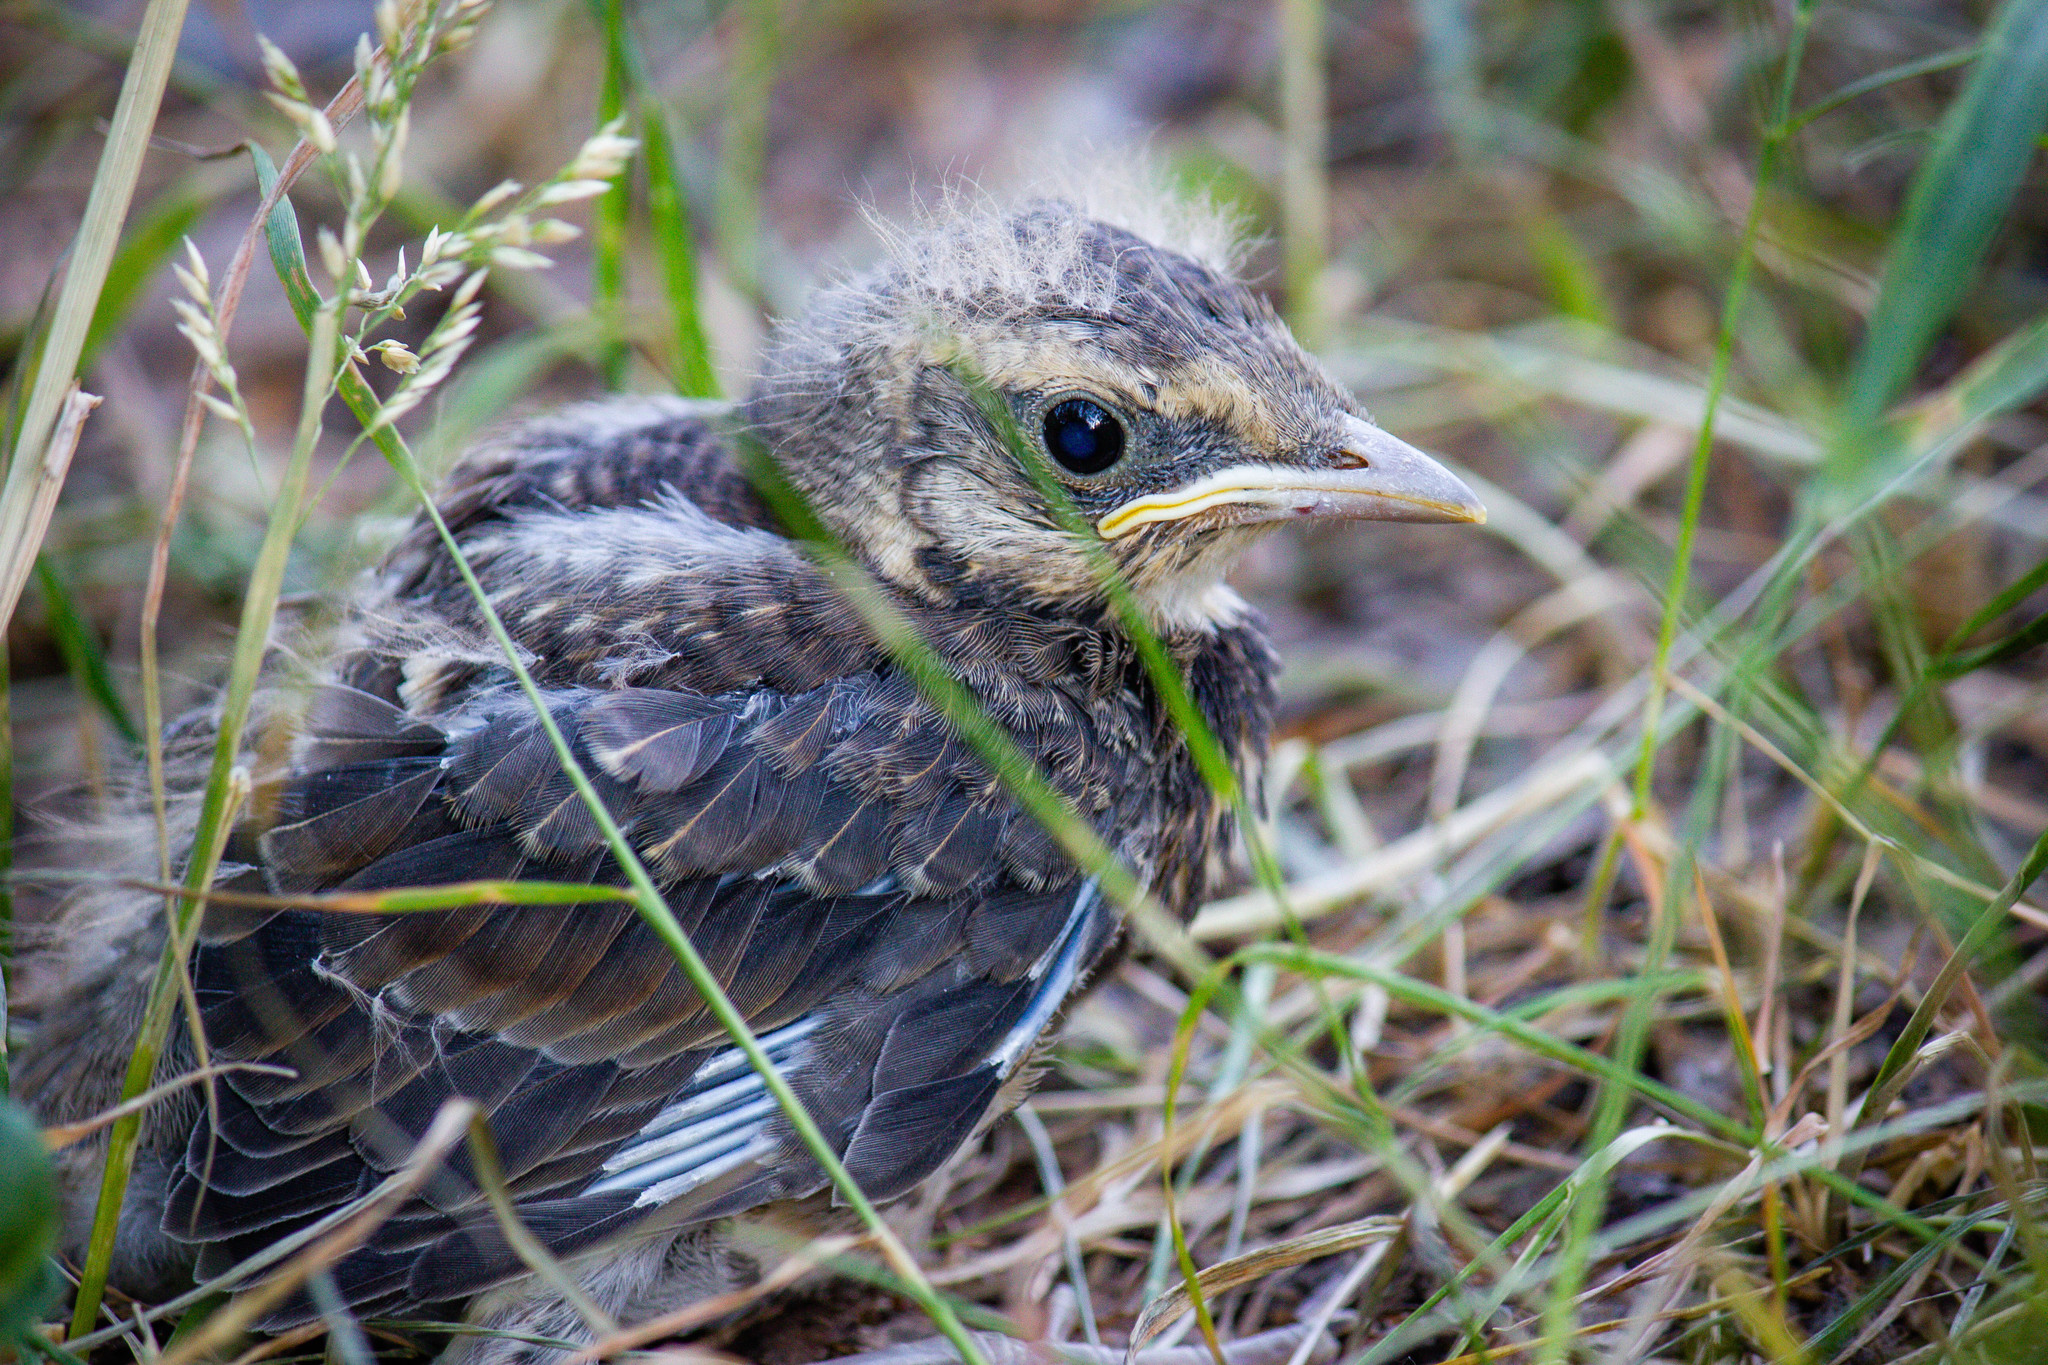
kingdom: Animalia
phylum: Chordata
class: Aves
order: Passeriformes
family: Turdidae
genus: Turdus
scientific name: Turdus pilaris
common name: Fieldfare
